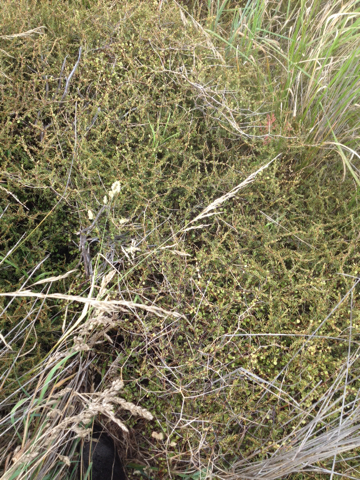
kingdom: Plantae
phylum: Tracheophyta
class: Magnoliopsida
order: Gentianales
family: Rubiaceae
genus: Coprosma
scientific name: Coprosma acerosa
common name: Sand coprosma
